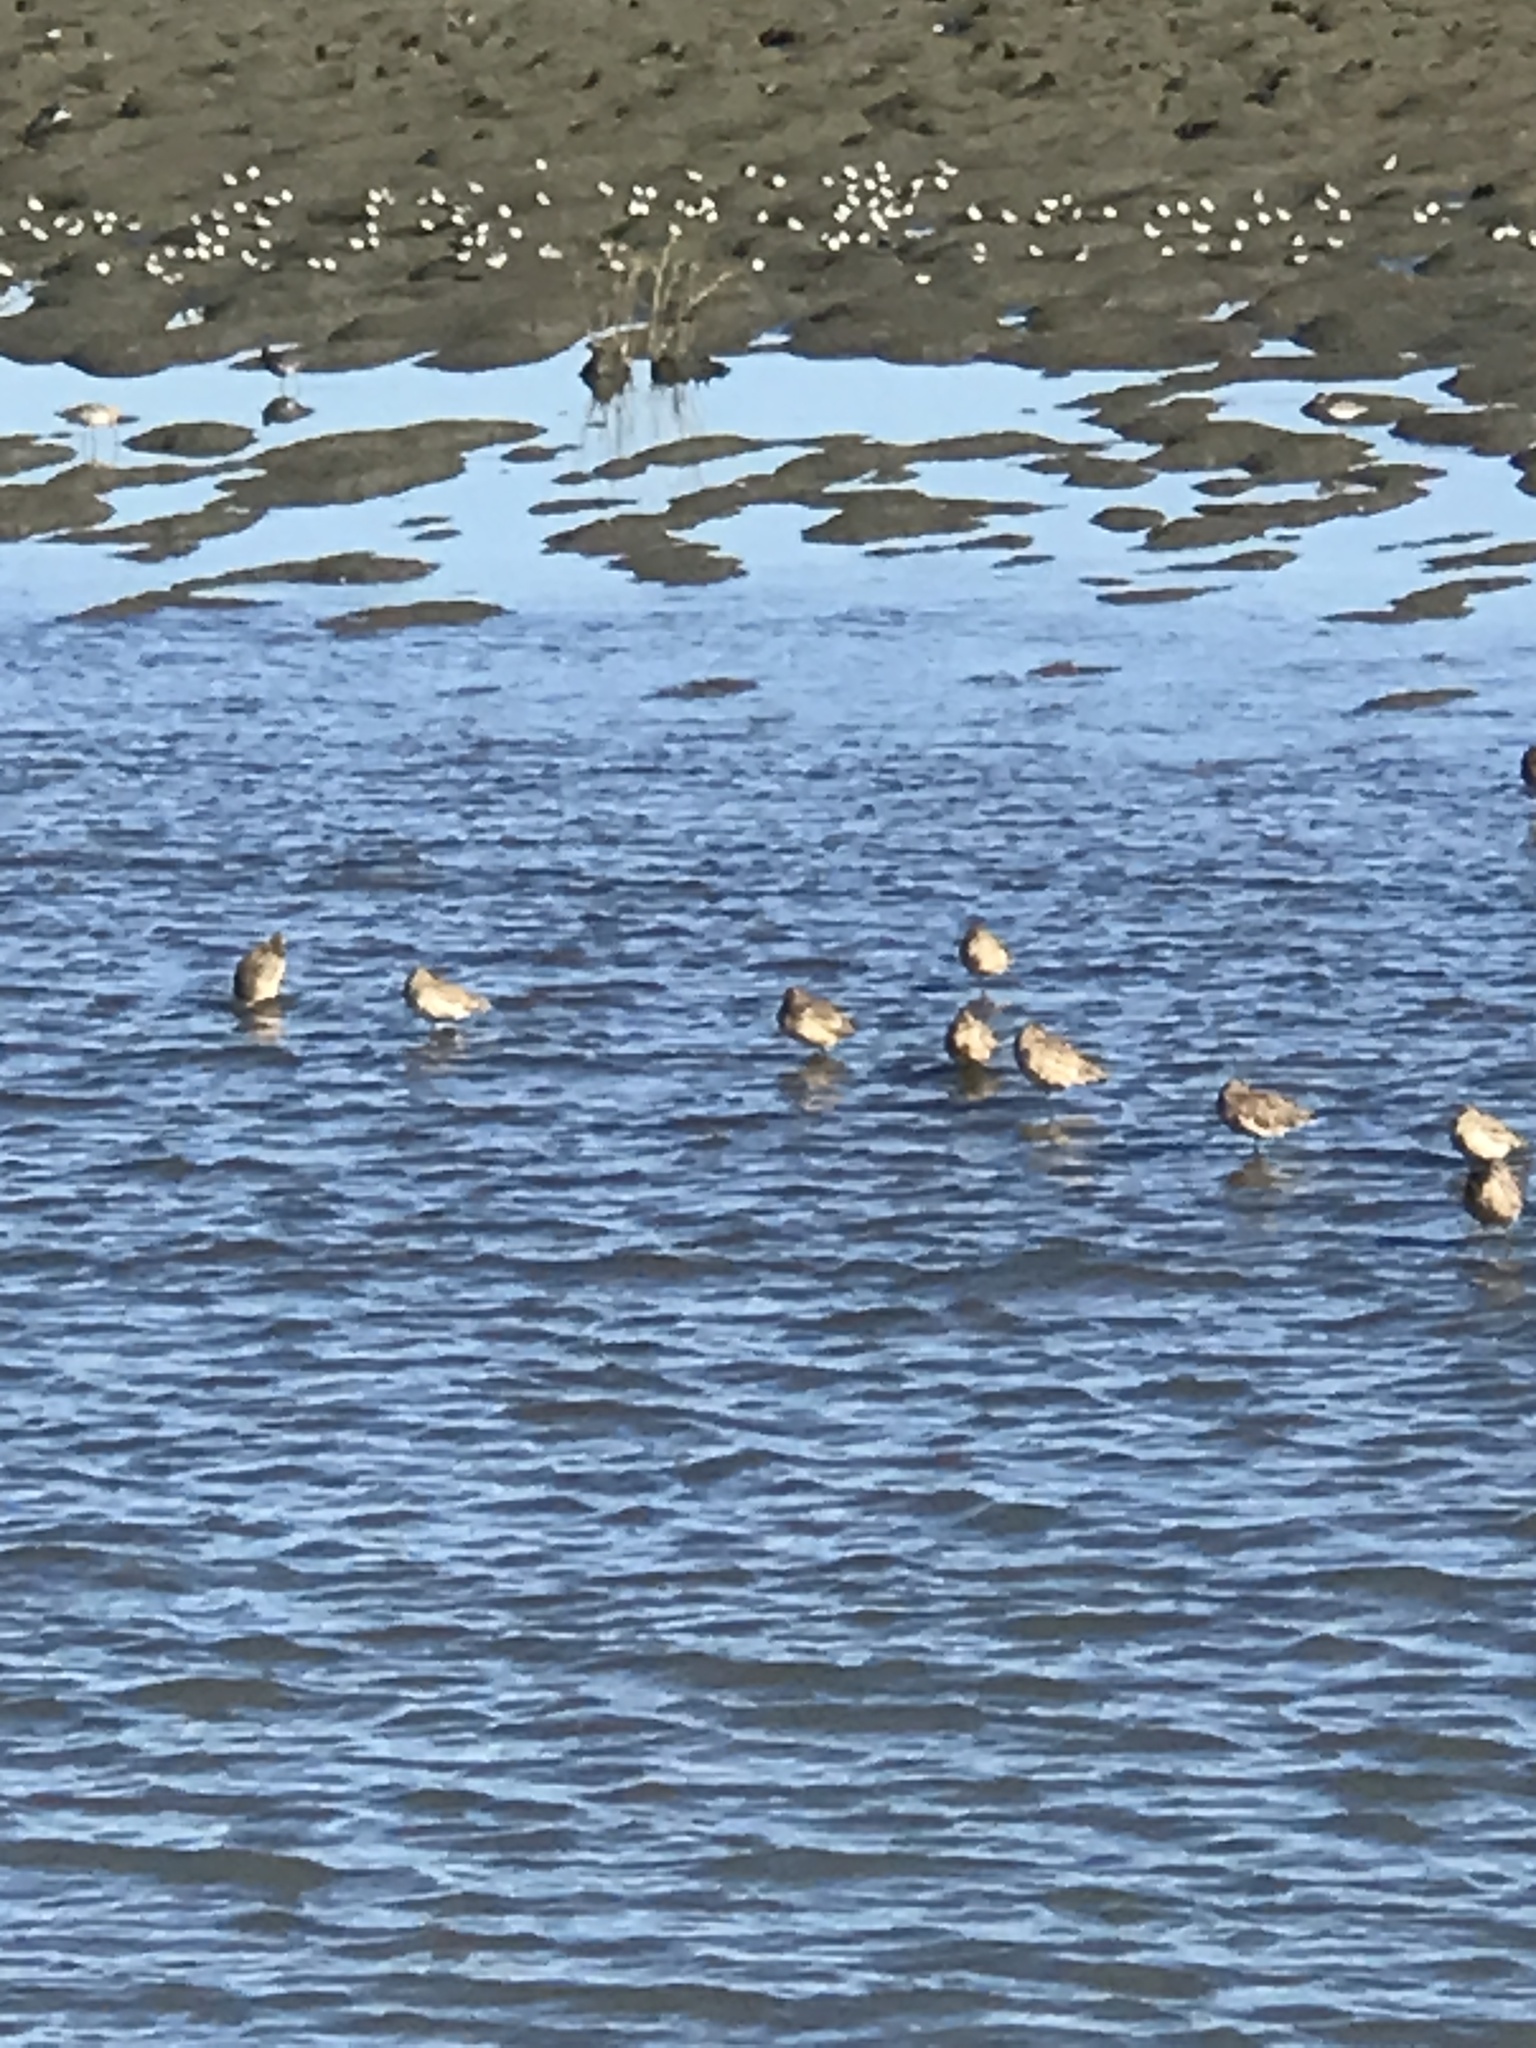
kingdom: Animalia
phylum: Chordata
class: Aves
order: Charadriiformes
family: Scolopacidae
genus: Limosa
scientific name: Limosa fedoa
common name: Marbled godwit
